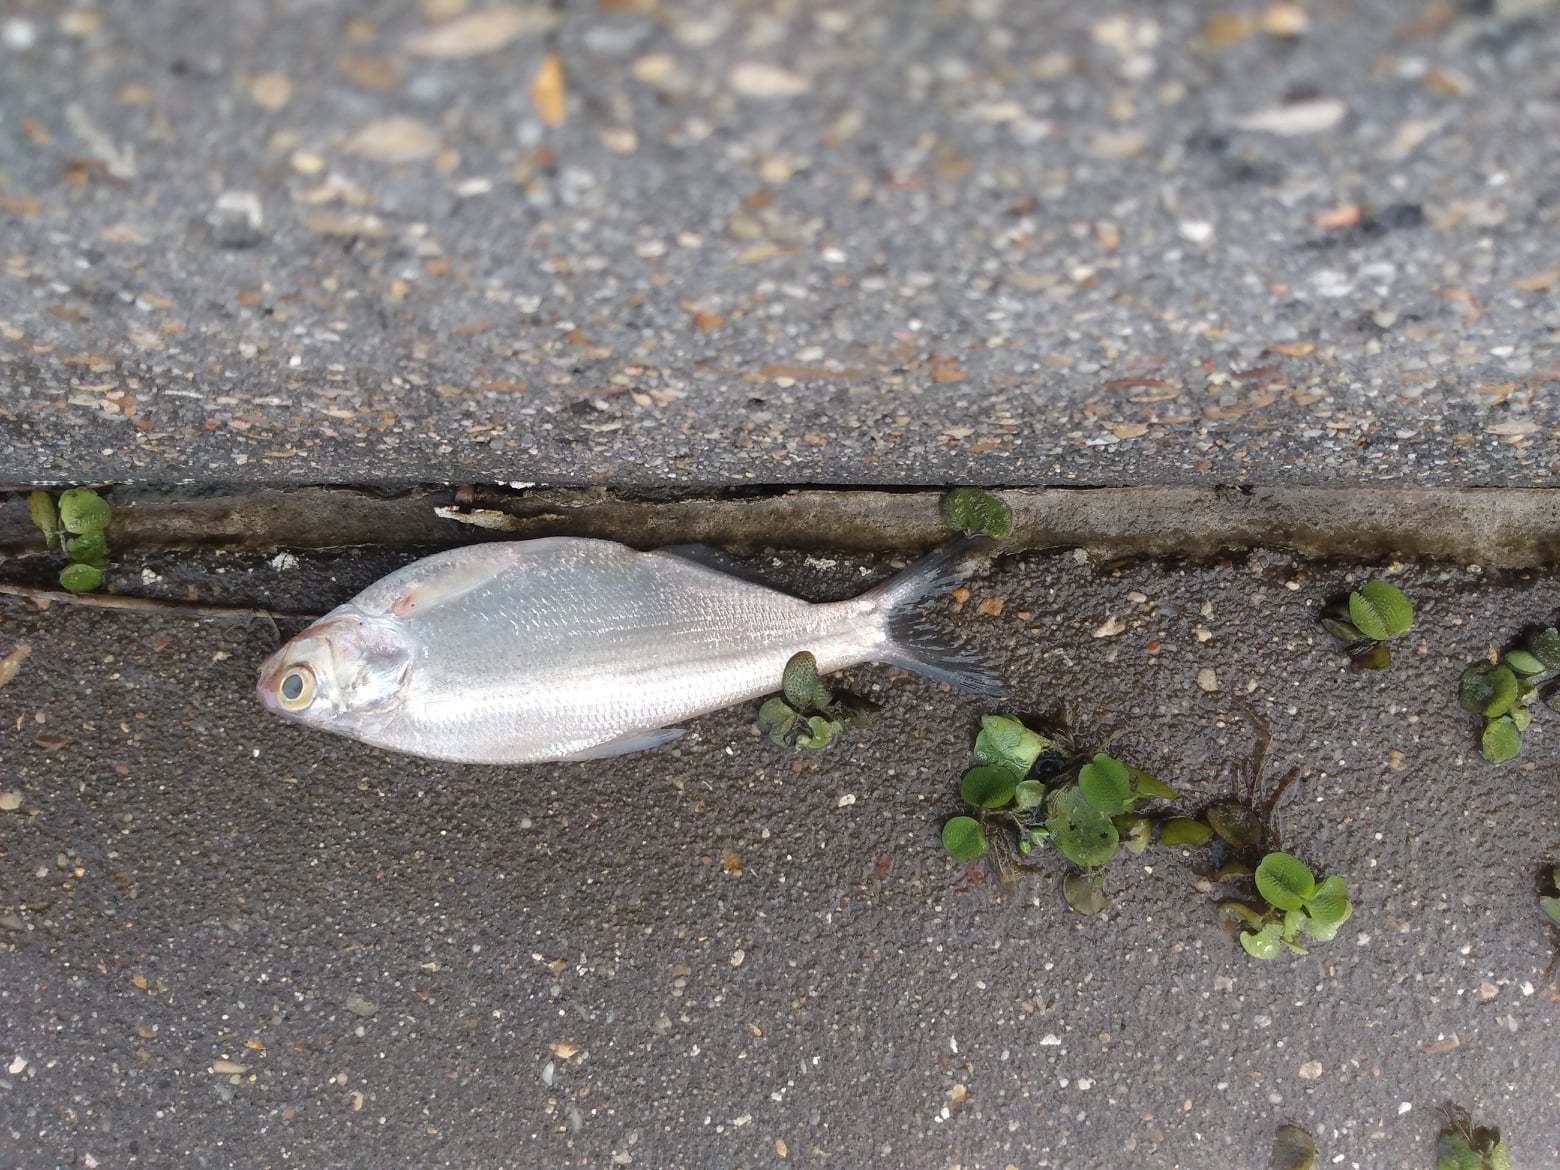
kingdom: Animalia
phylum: Chordata
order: Clupeiformes
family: Clupeidae
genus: Dorosoma
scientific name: Dorosoma cepedianum
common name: Gizzard shad
